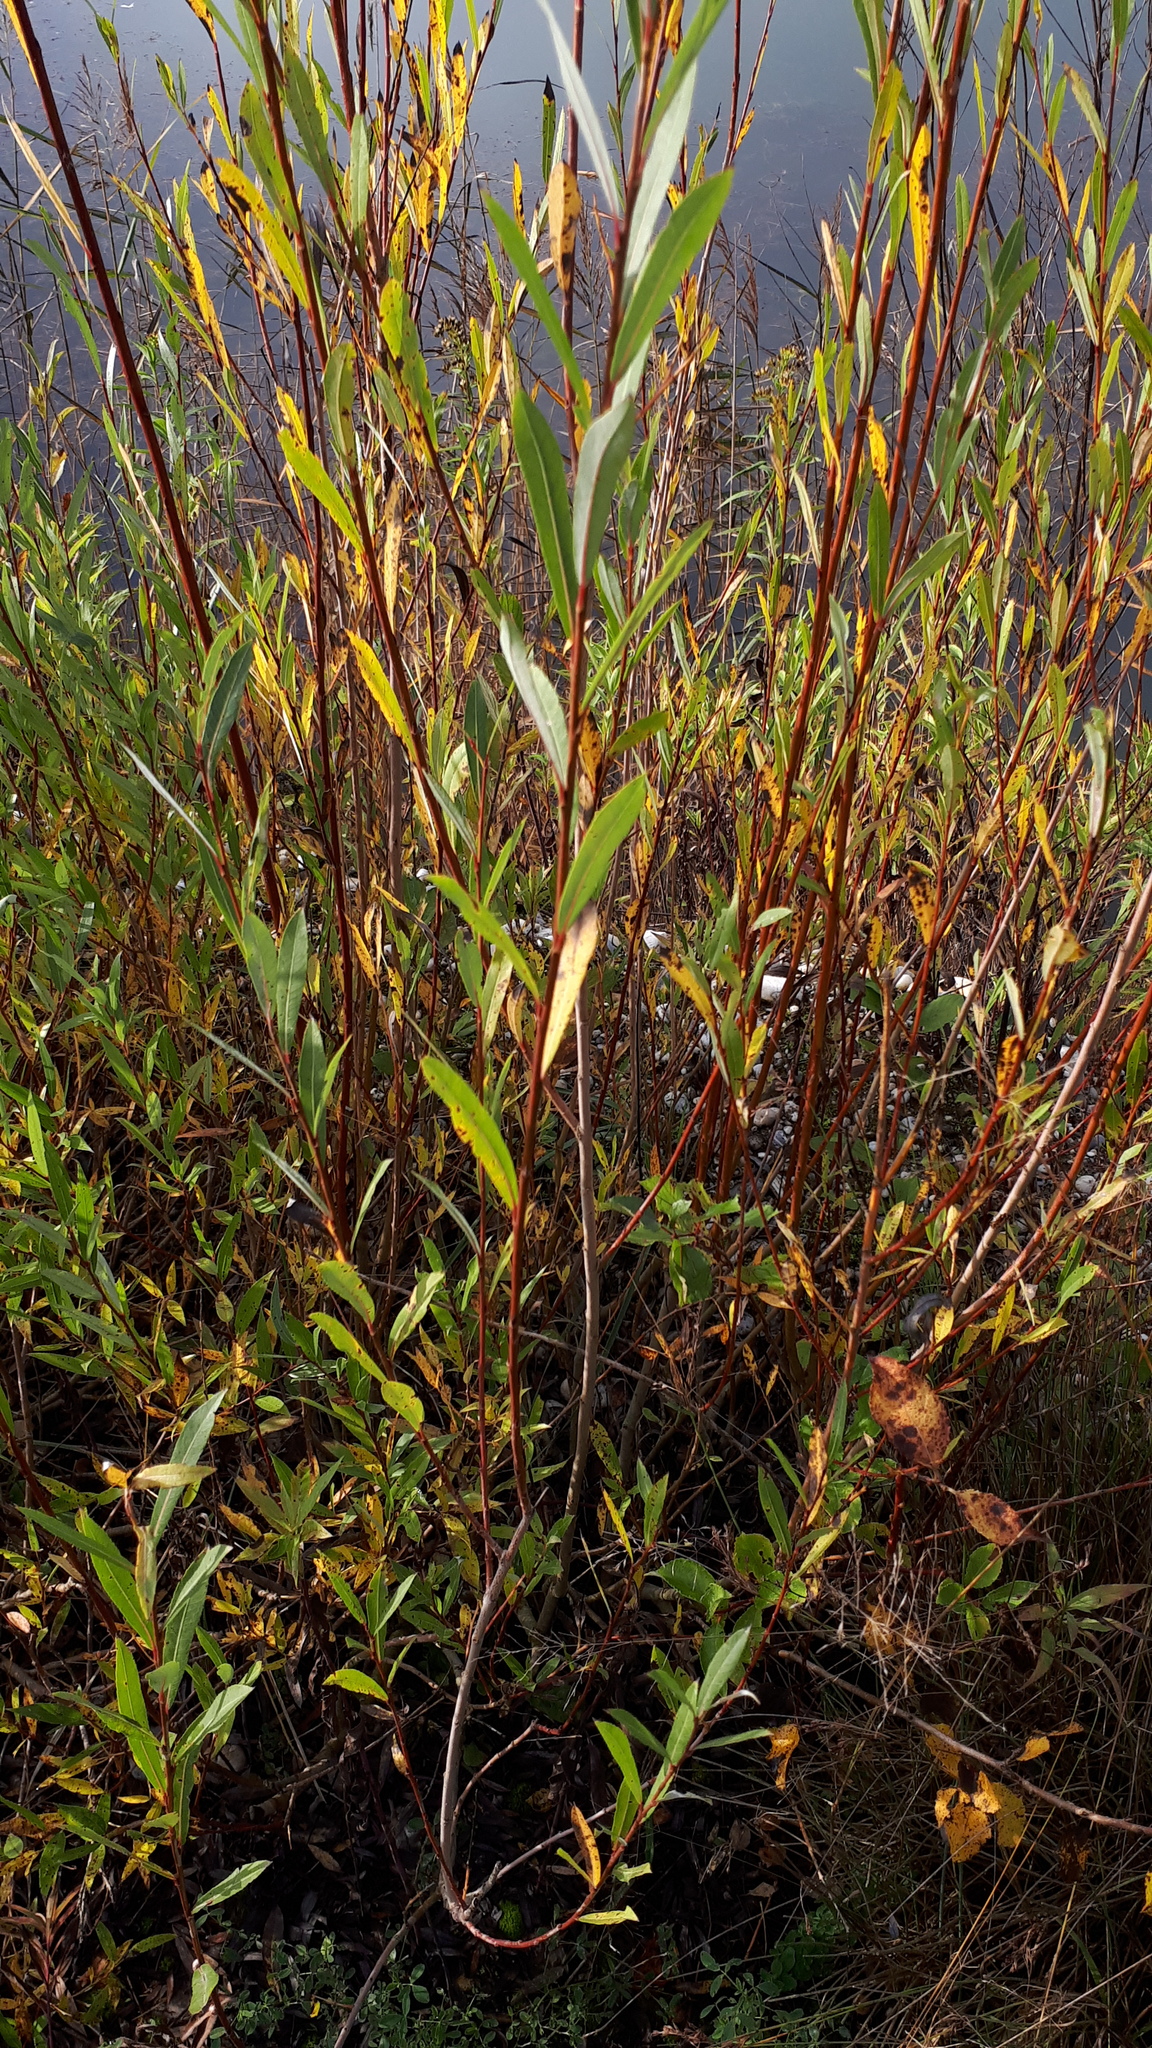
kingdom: Plantae
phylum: Tracheophyta
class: Magnoliopsida
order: Malpighiales
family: Salicaceae
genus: Salix
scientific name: Salix purpurea
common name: Purple willow
